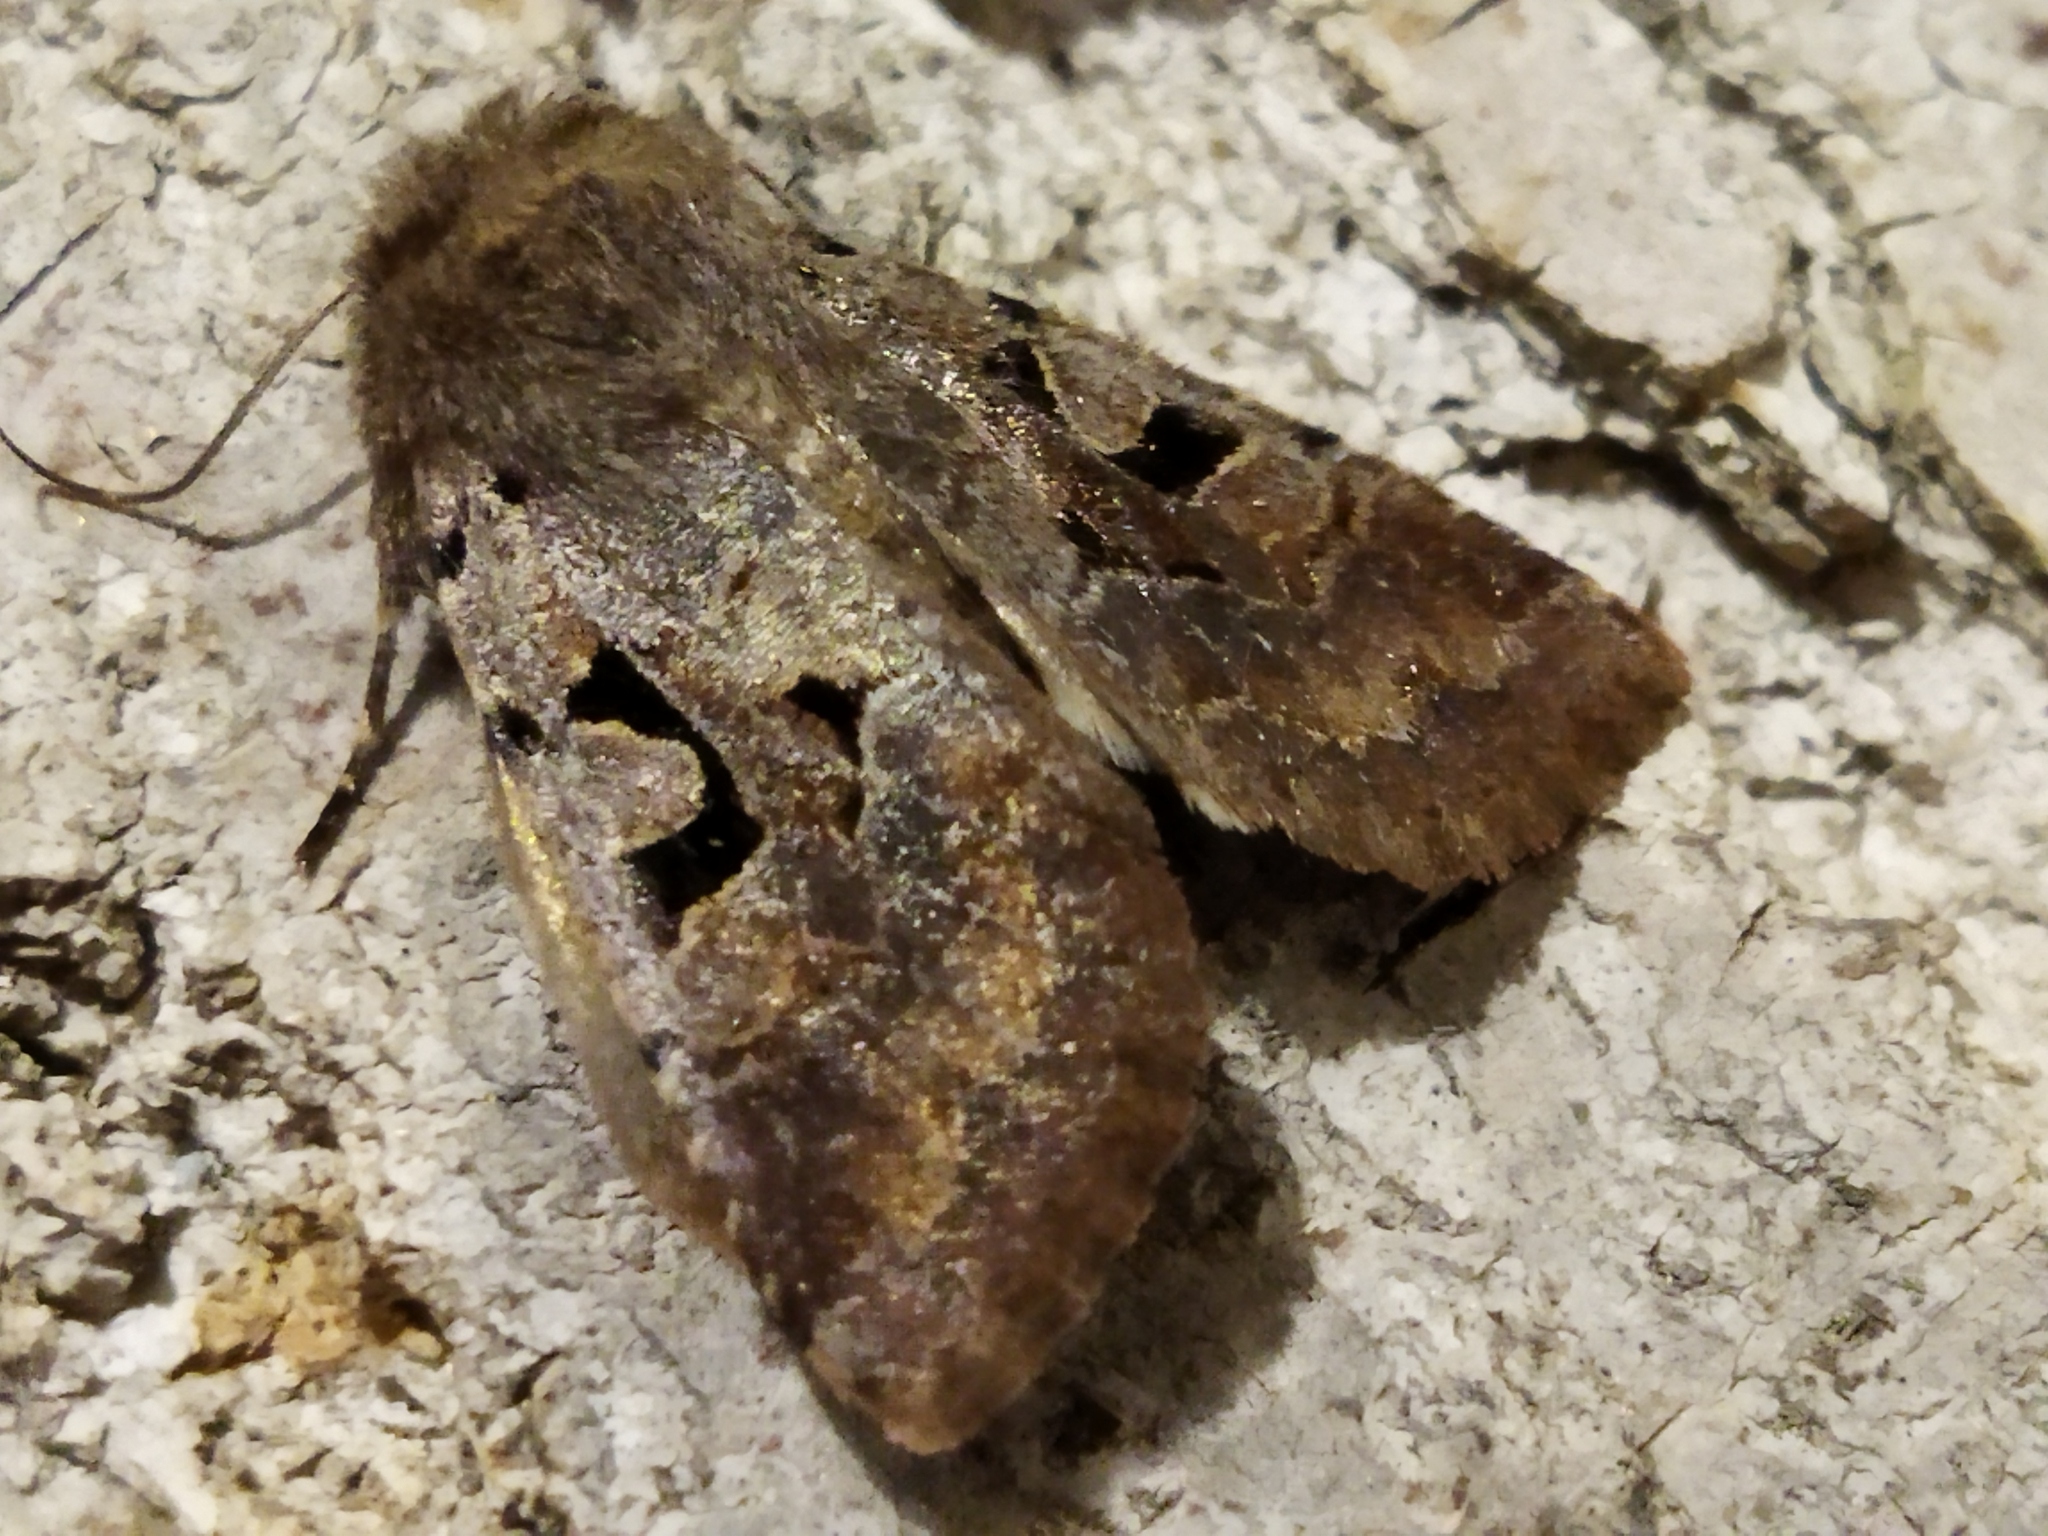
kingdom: Animalia
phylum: Arthropoda
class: Insecta
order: Lepidoptera
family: Noctuidae
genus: Orthosia
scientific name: Orthosia gothica
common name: Hebrew character
